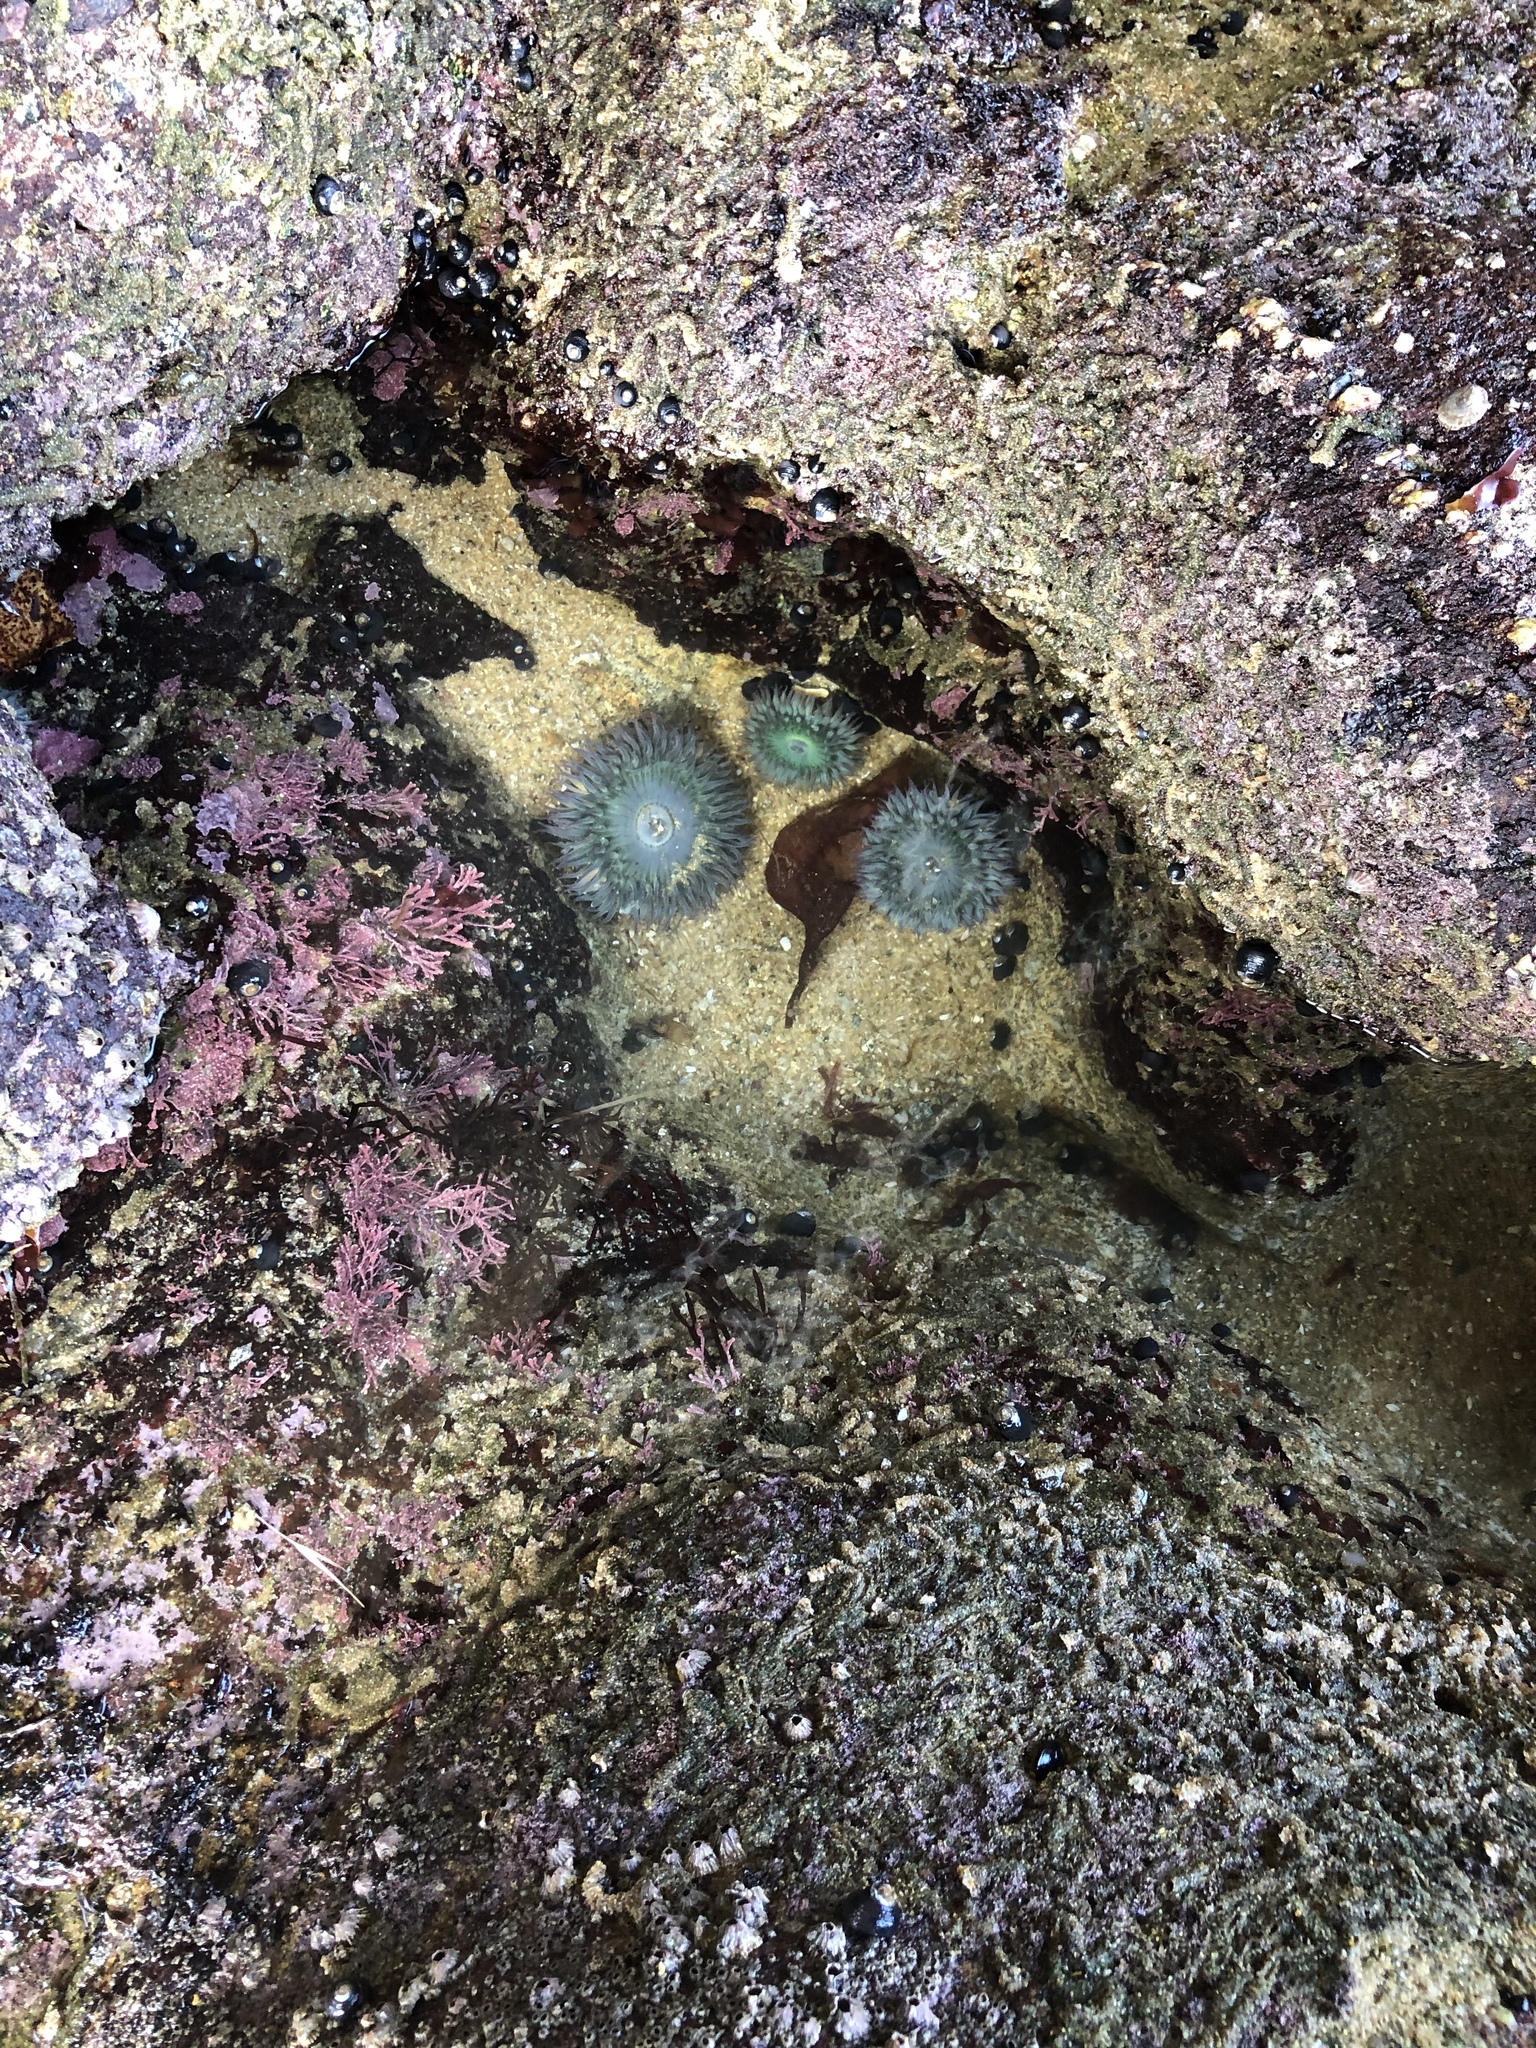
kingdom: Animalia
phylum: Cnidaria
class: Anthozoa
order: Actiniaria
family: Actiniidae
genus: Anthopleura
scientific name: Anthopleura sola
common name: Sun anemone
